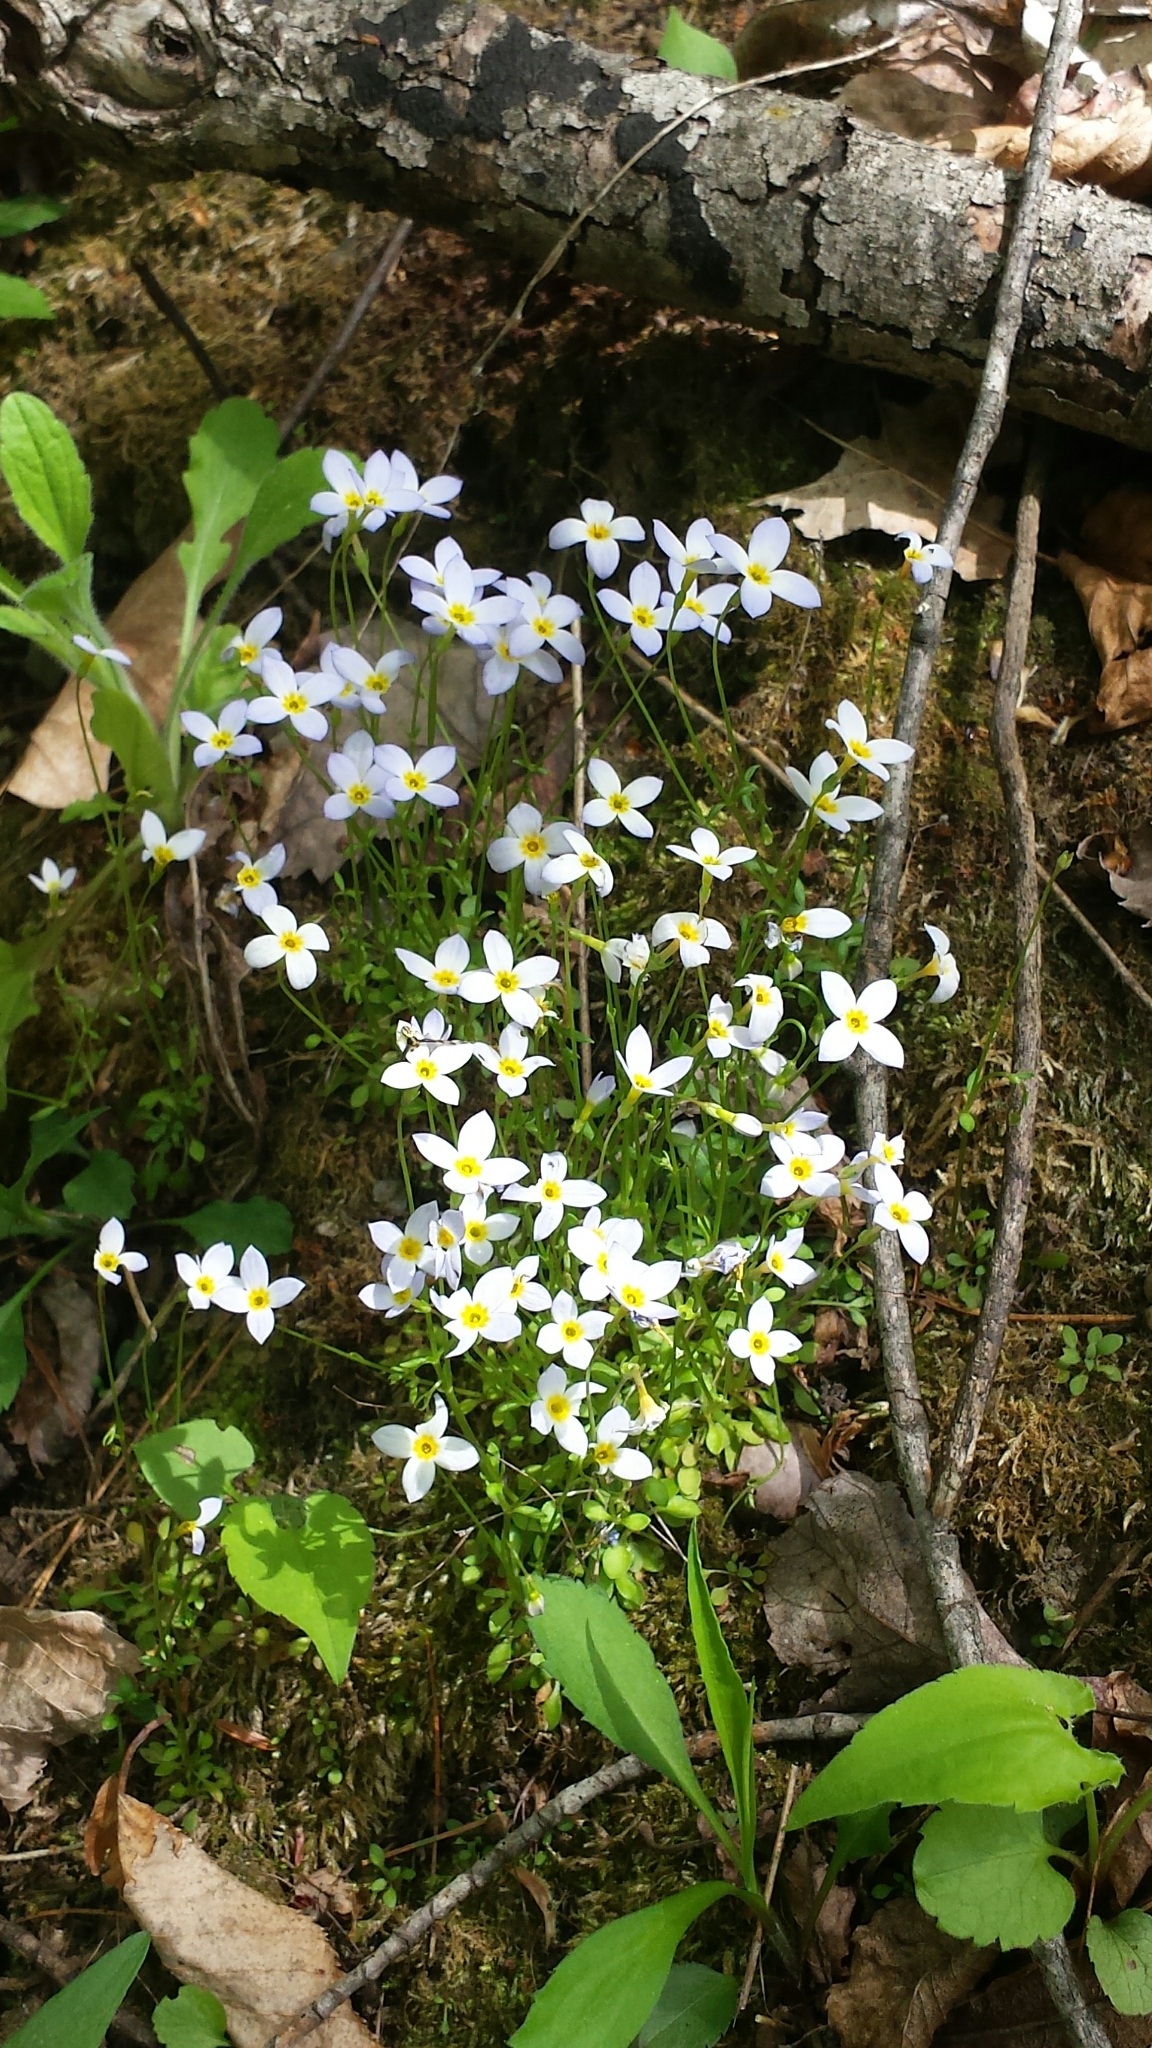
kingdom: Plantae
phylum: Tracheophyta
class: Magnoliopsida
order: Gentianales
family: Rubiaceae
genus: Houstonia
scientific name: Houstonia caerulea
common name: Bluets
